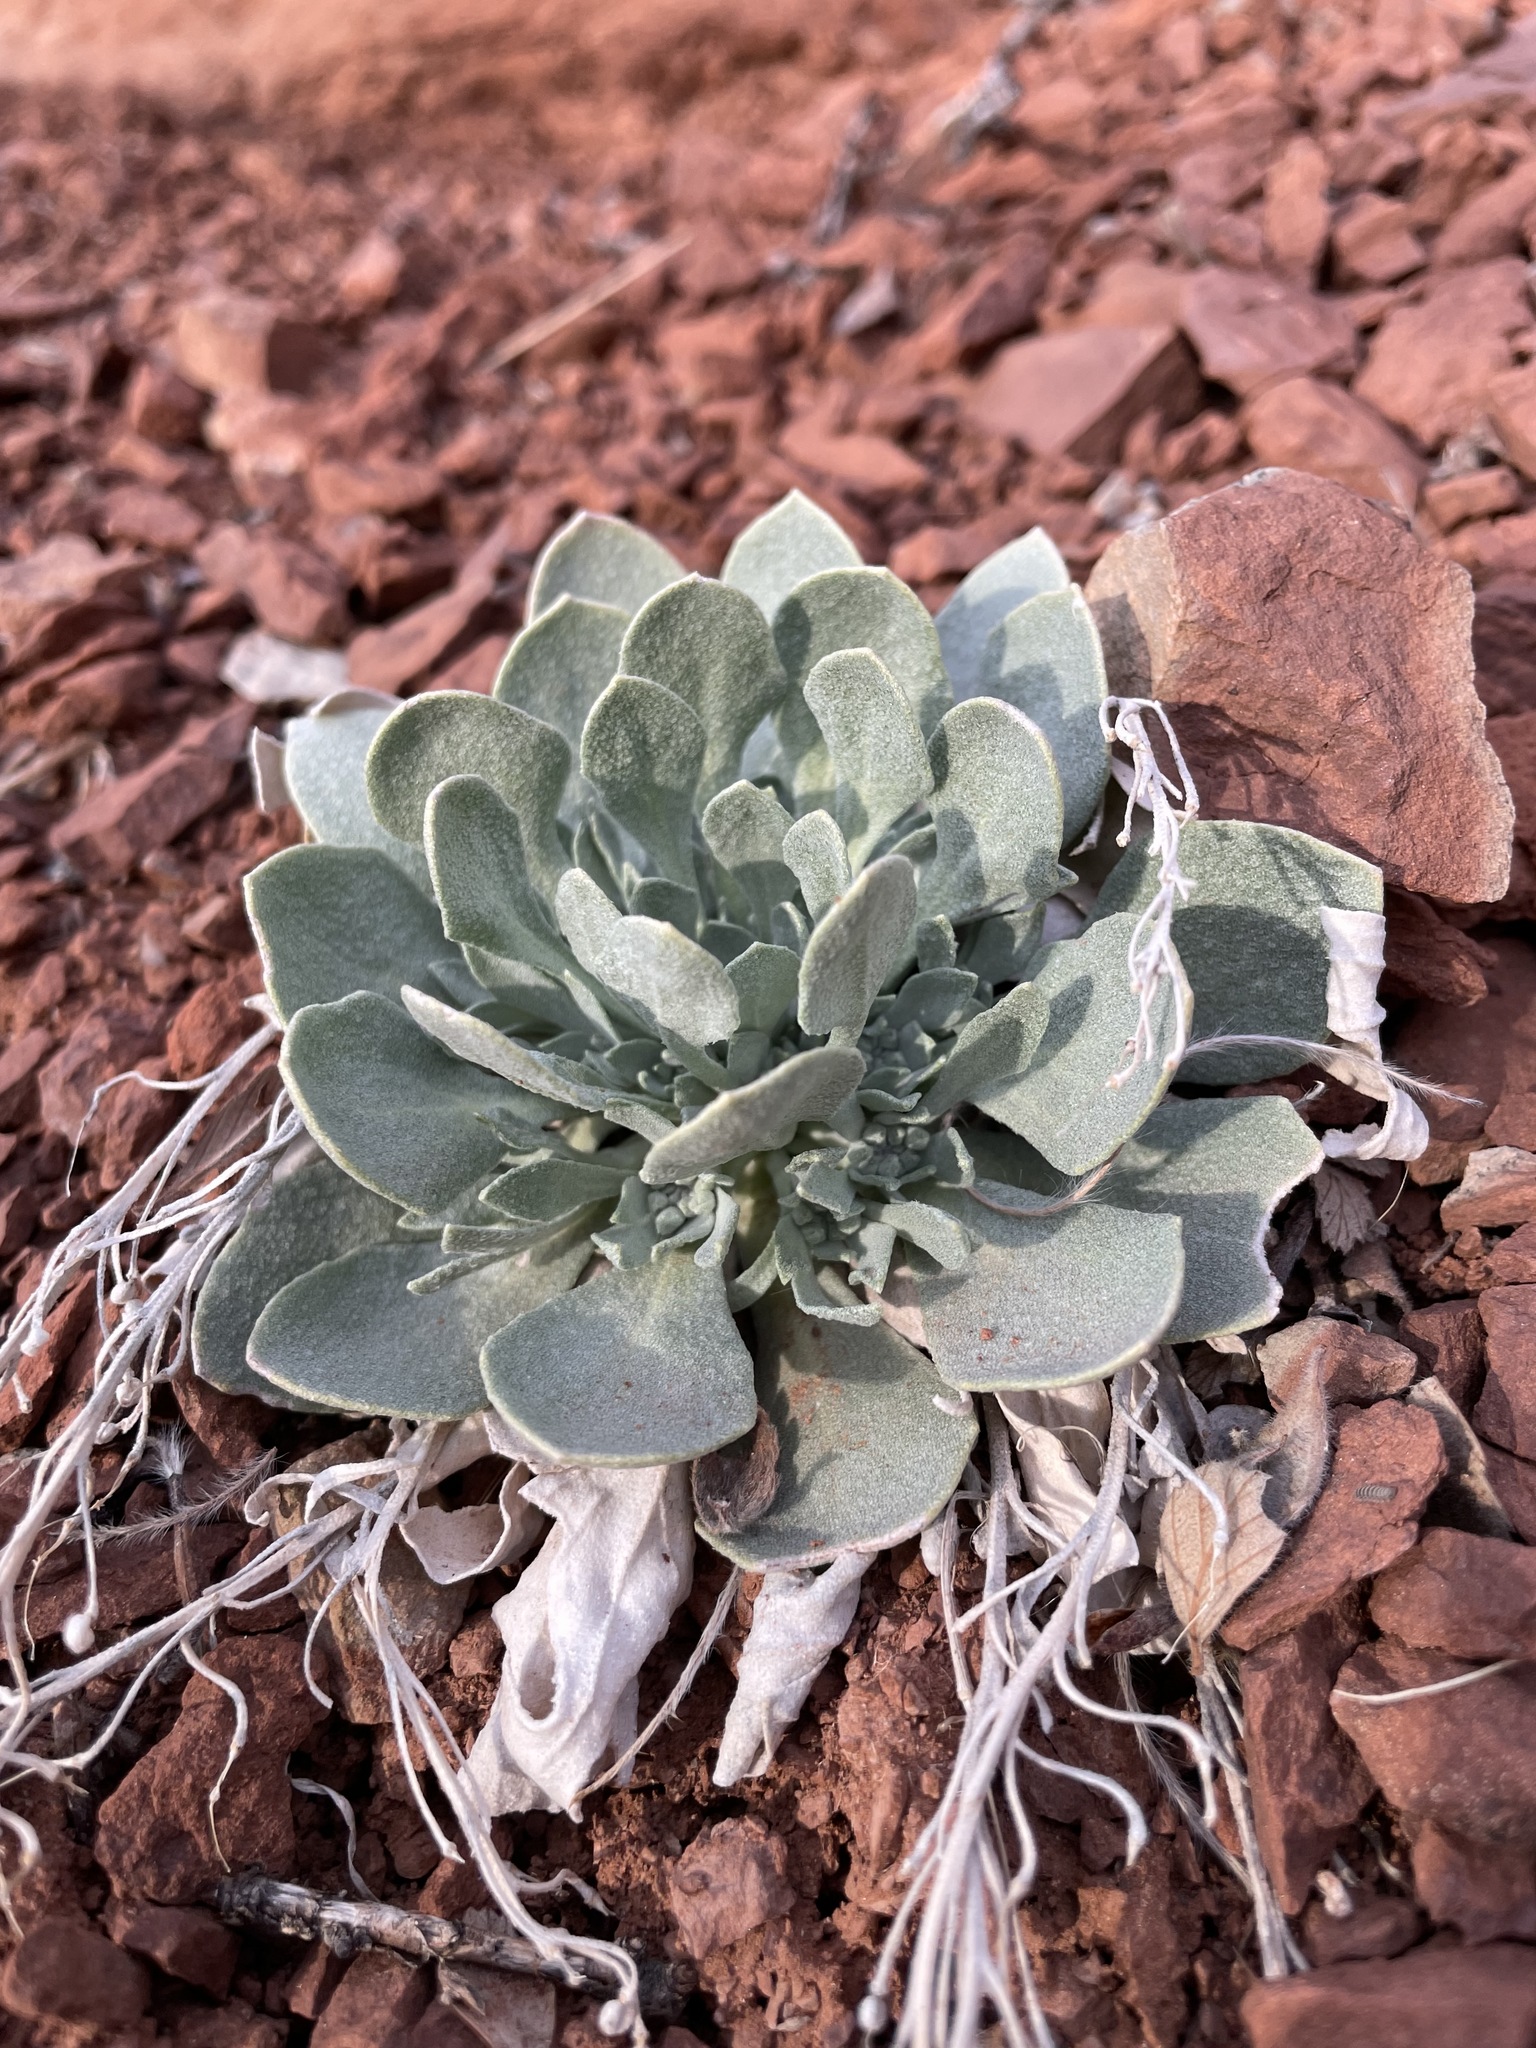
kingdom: Plantae
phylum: Tracheophyta
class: Magnoliopsida
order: Brassicales
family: Brassicaceae
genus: Physaria
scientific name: Physaria bellii
